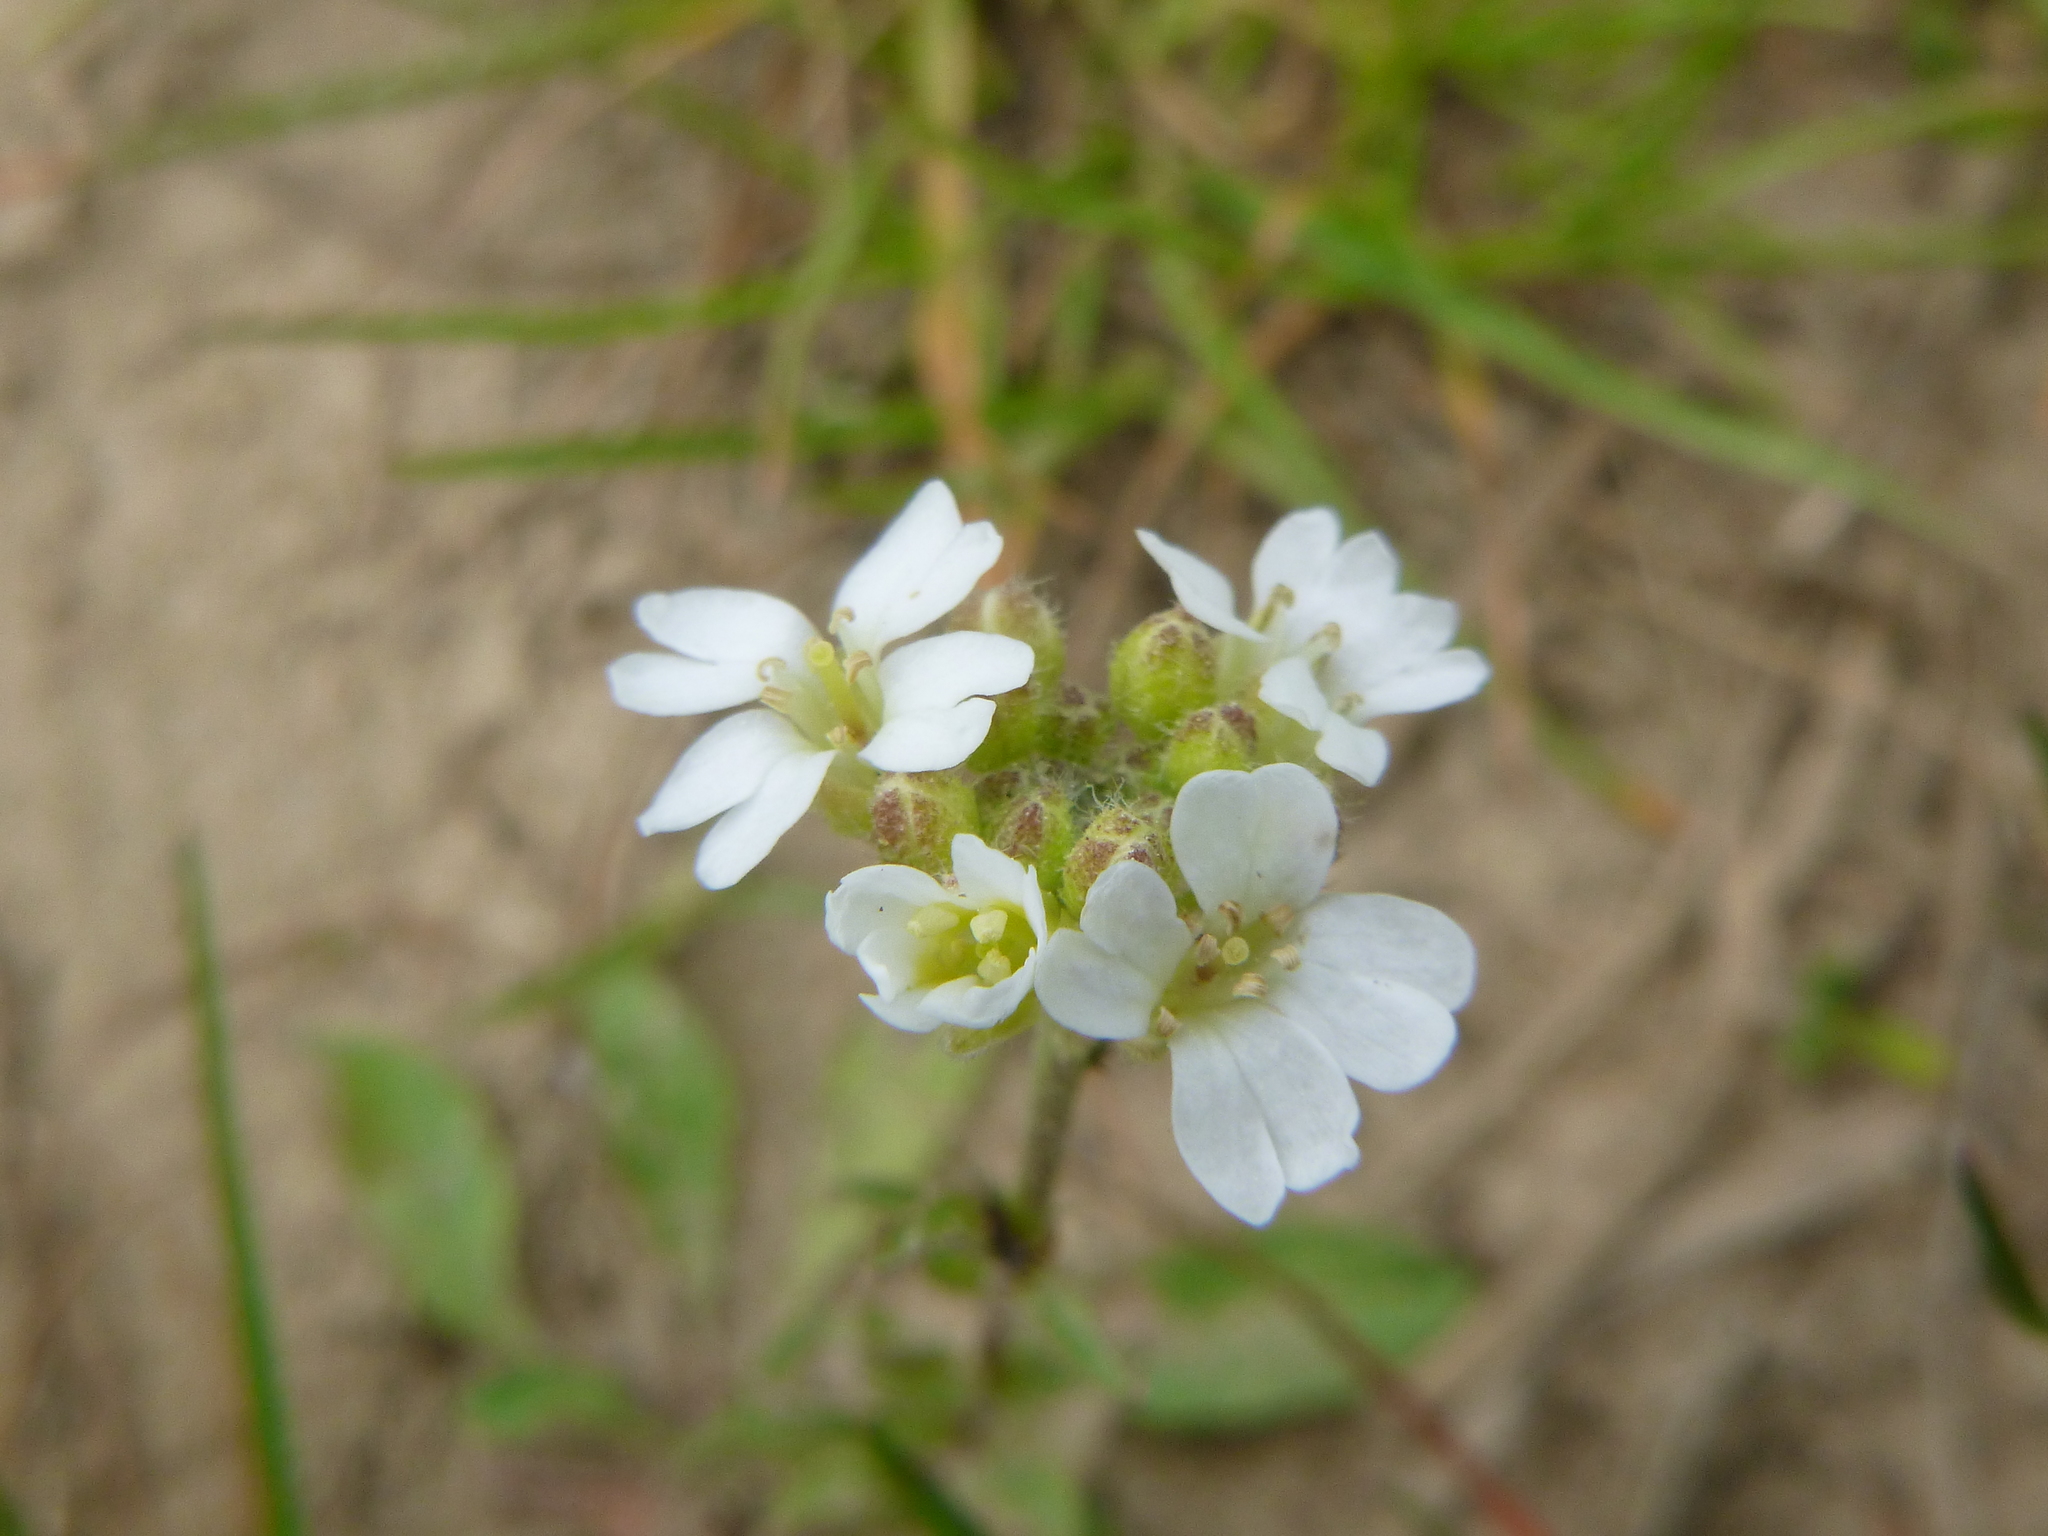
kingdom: Plantae
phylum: Tracheophyta
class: Magnoliopsida
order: Brassicales
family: Brassicaceae
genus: Berteroa
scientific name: Berteroa incana
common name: Hoary alison
